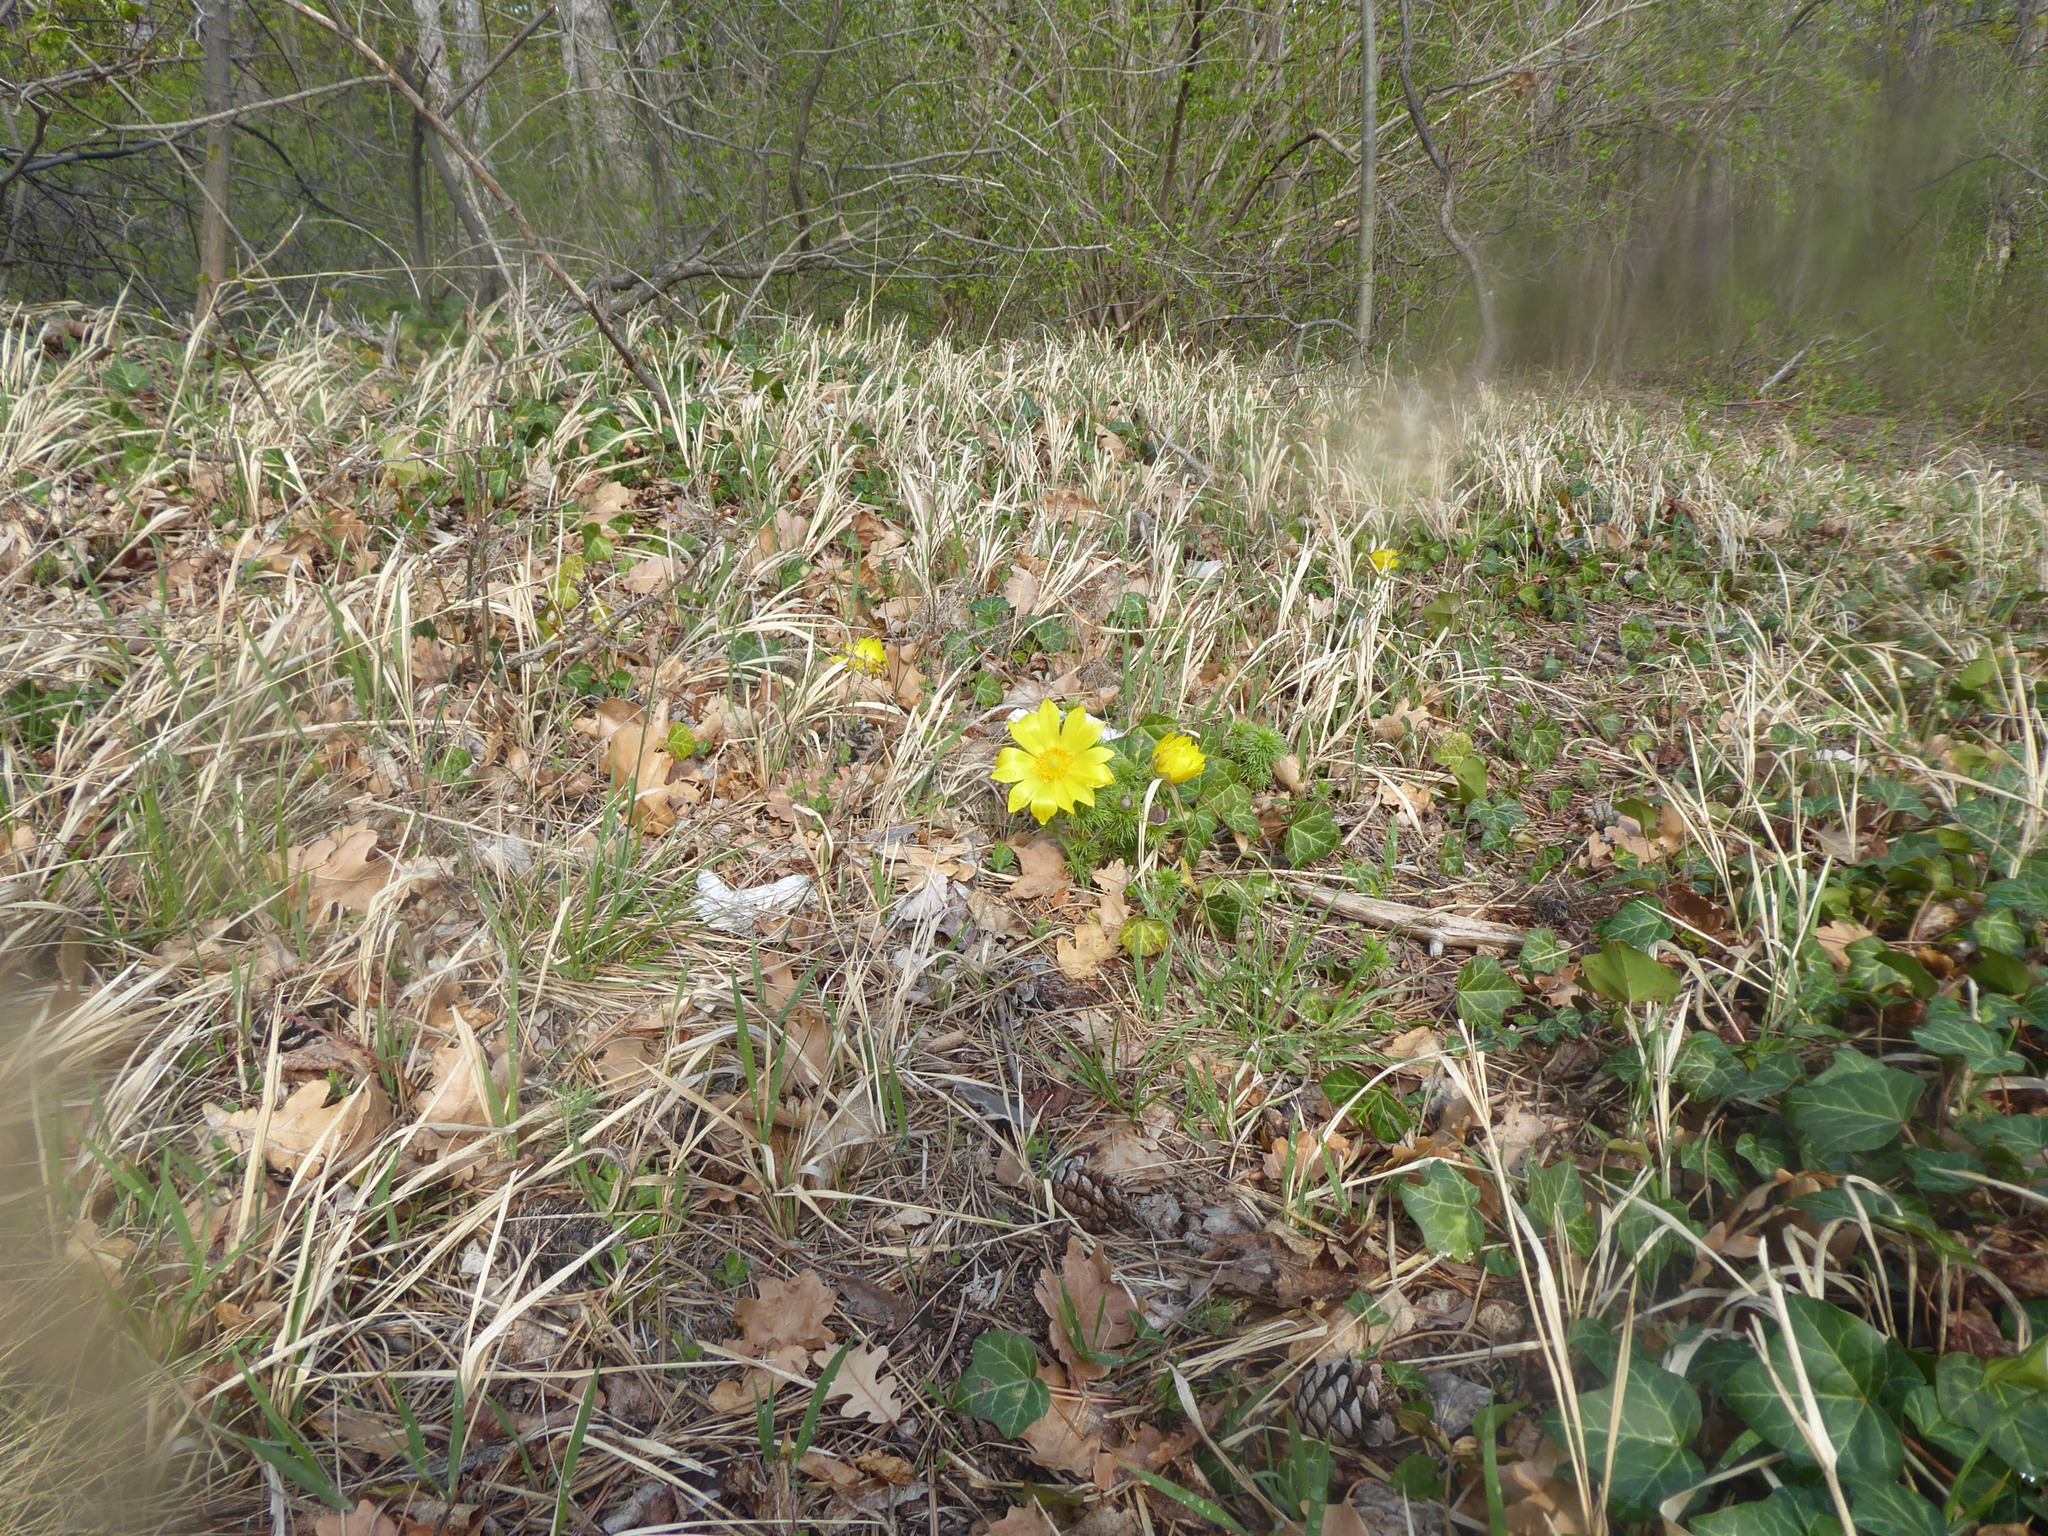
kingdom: Plantae
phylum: Tracheophyta
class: Magnoliopsida
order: Ranunculales
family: Ranunculaceae
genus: Adonis
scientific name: Adonis vernalis
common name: Yellow pheasants-eye
